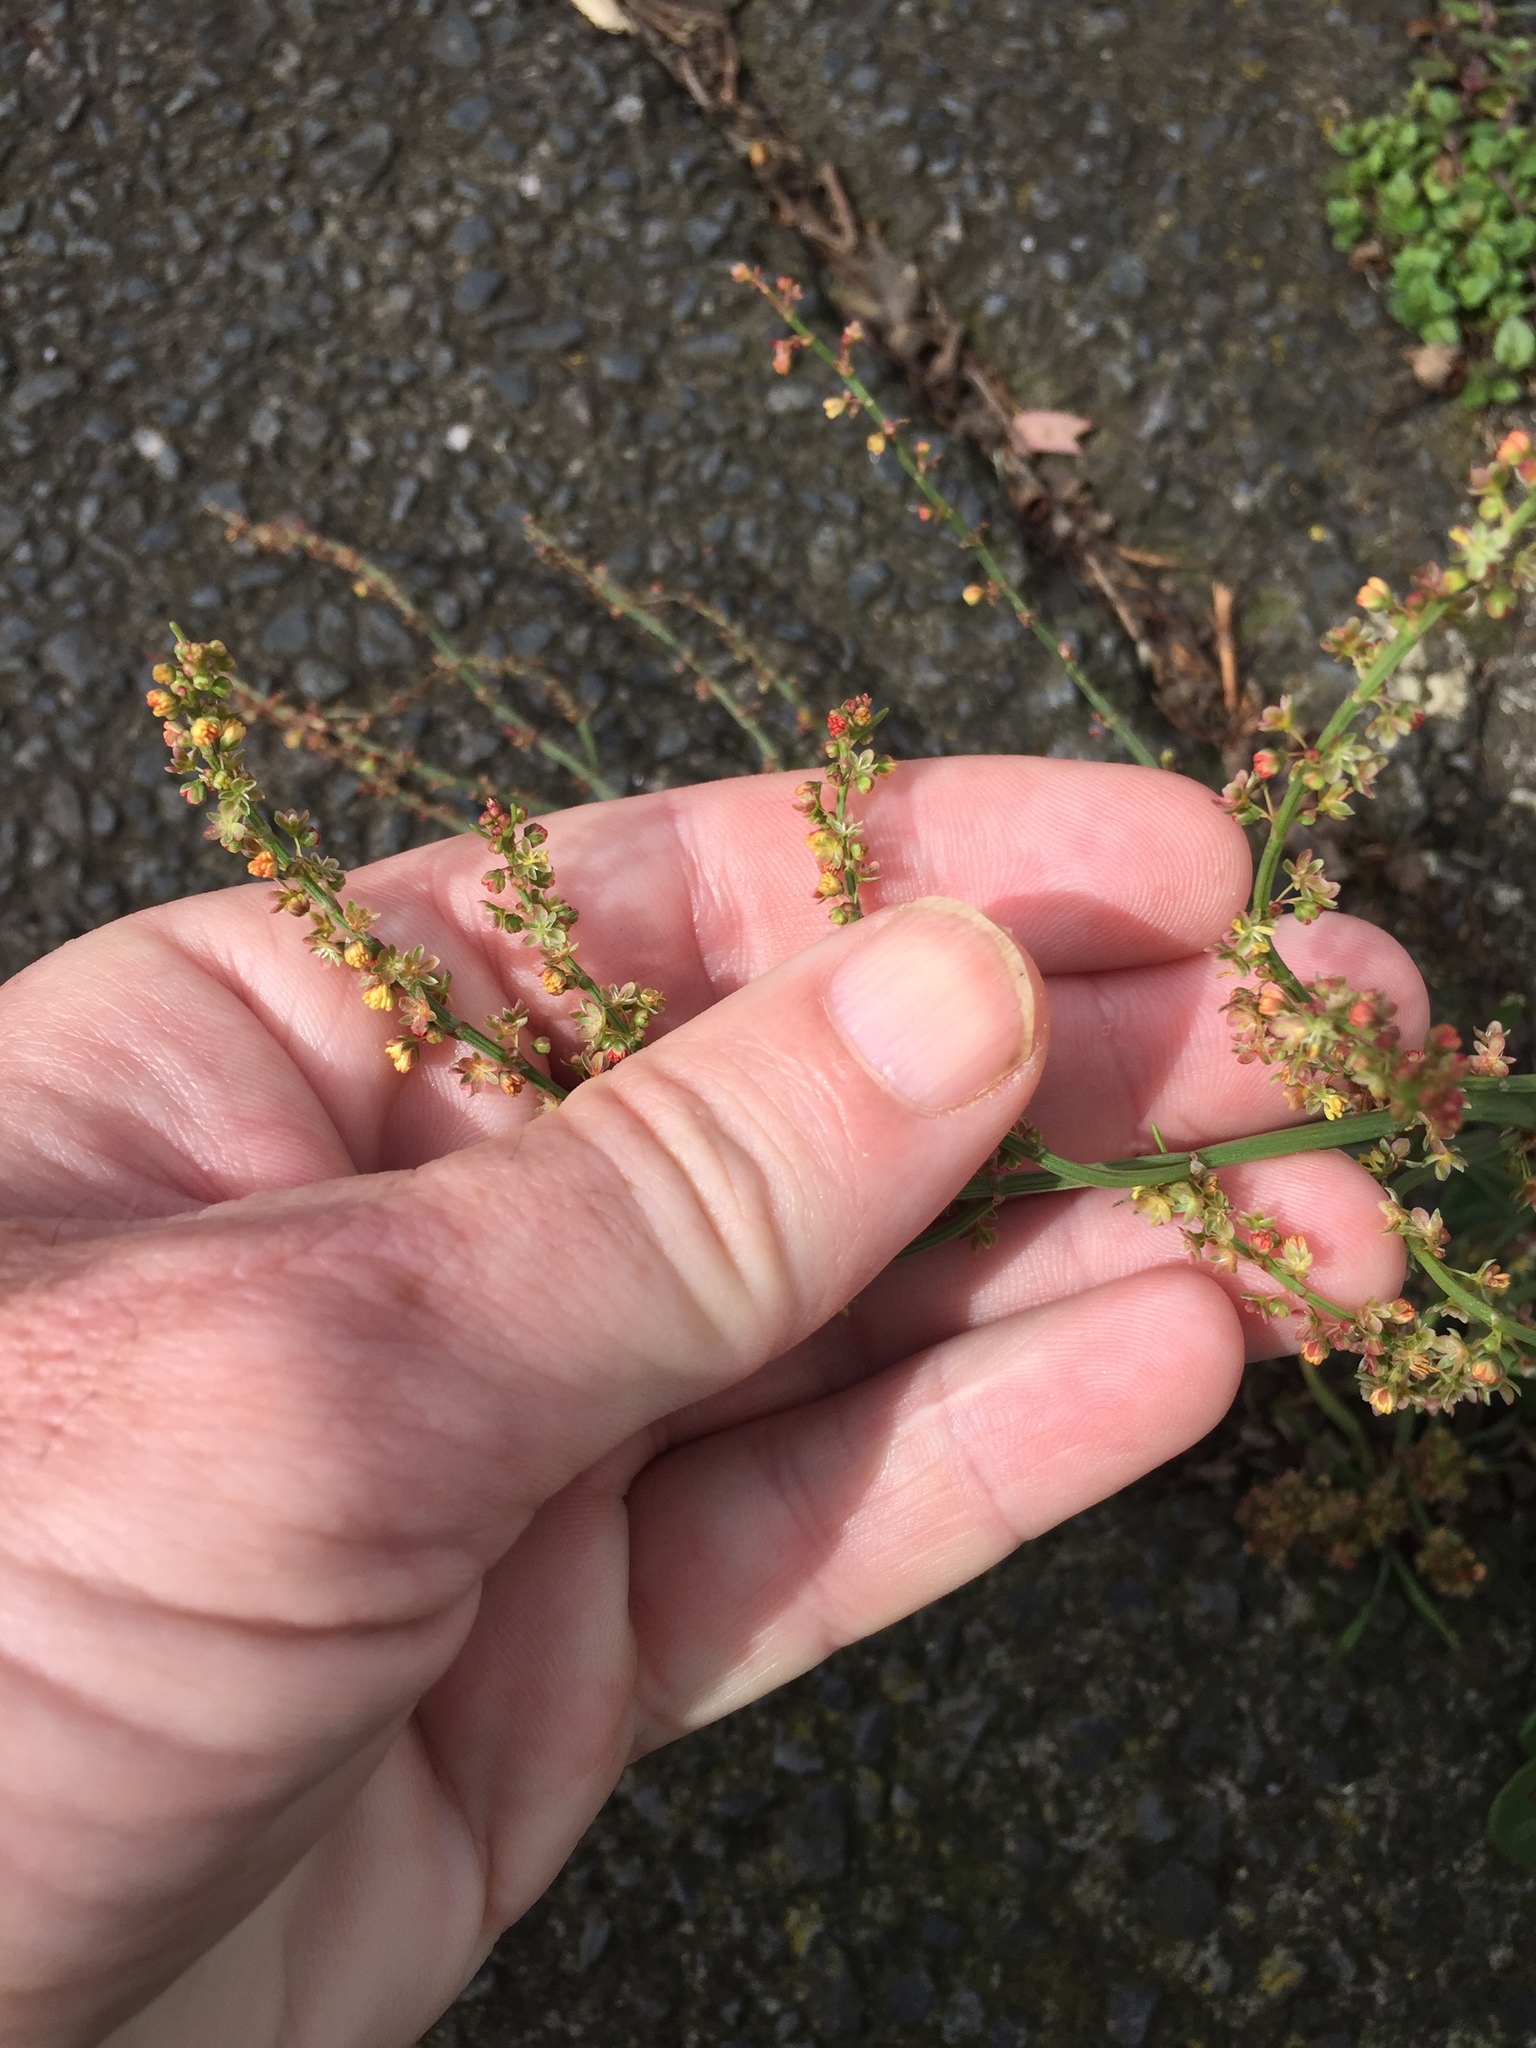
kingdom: Plantae
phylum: Tracheophyta
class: Magnoliopsida
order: Caryophyllales
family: Polygonaceae
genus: Rumex
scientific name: Rumex acetosella
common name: Common sheep sorrel
